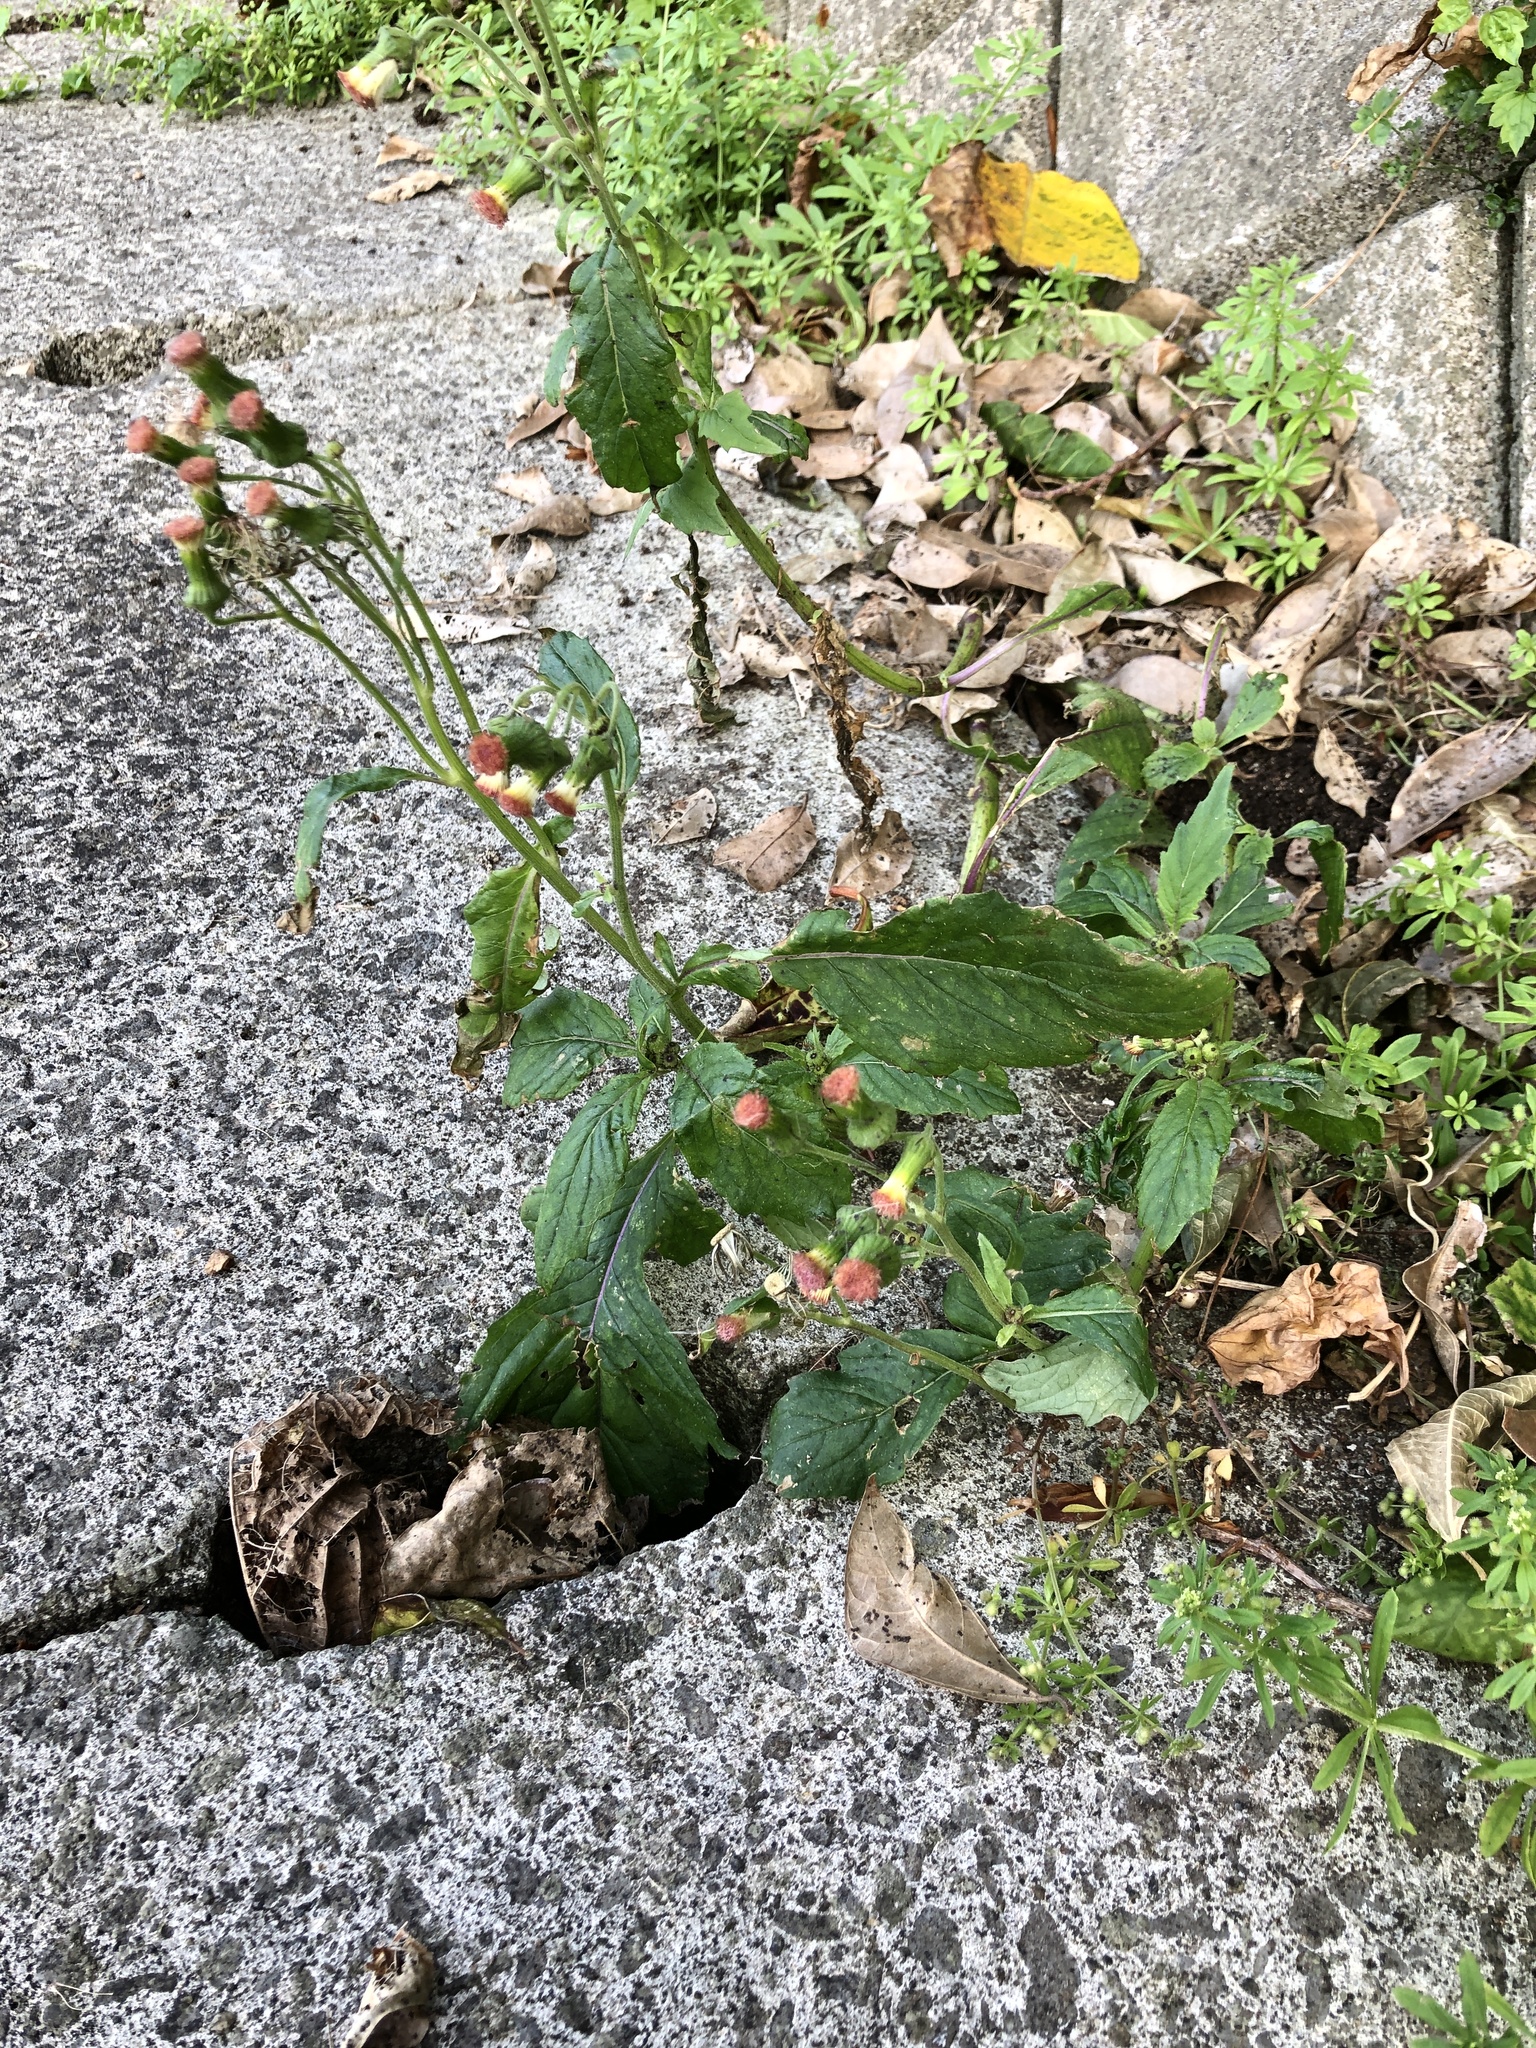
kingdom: Plantae
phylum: Tracheophyta
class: Magnoliopsida
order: Asterales
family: Asteraceae
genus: Crassocephalum
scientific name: Crassocephalum crepidioides
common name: Redflower ragleaf
